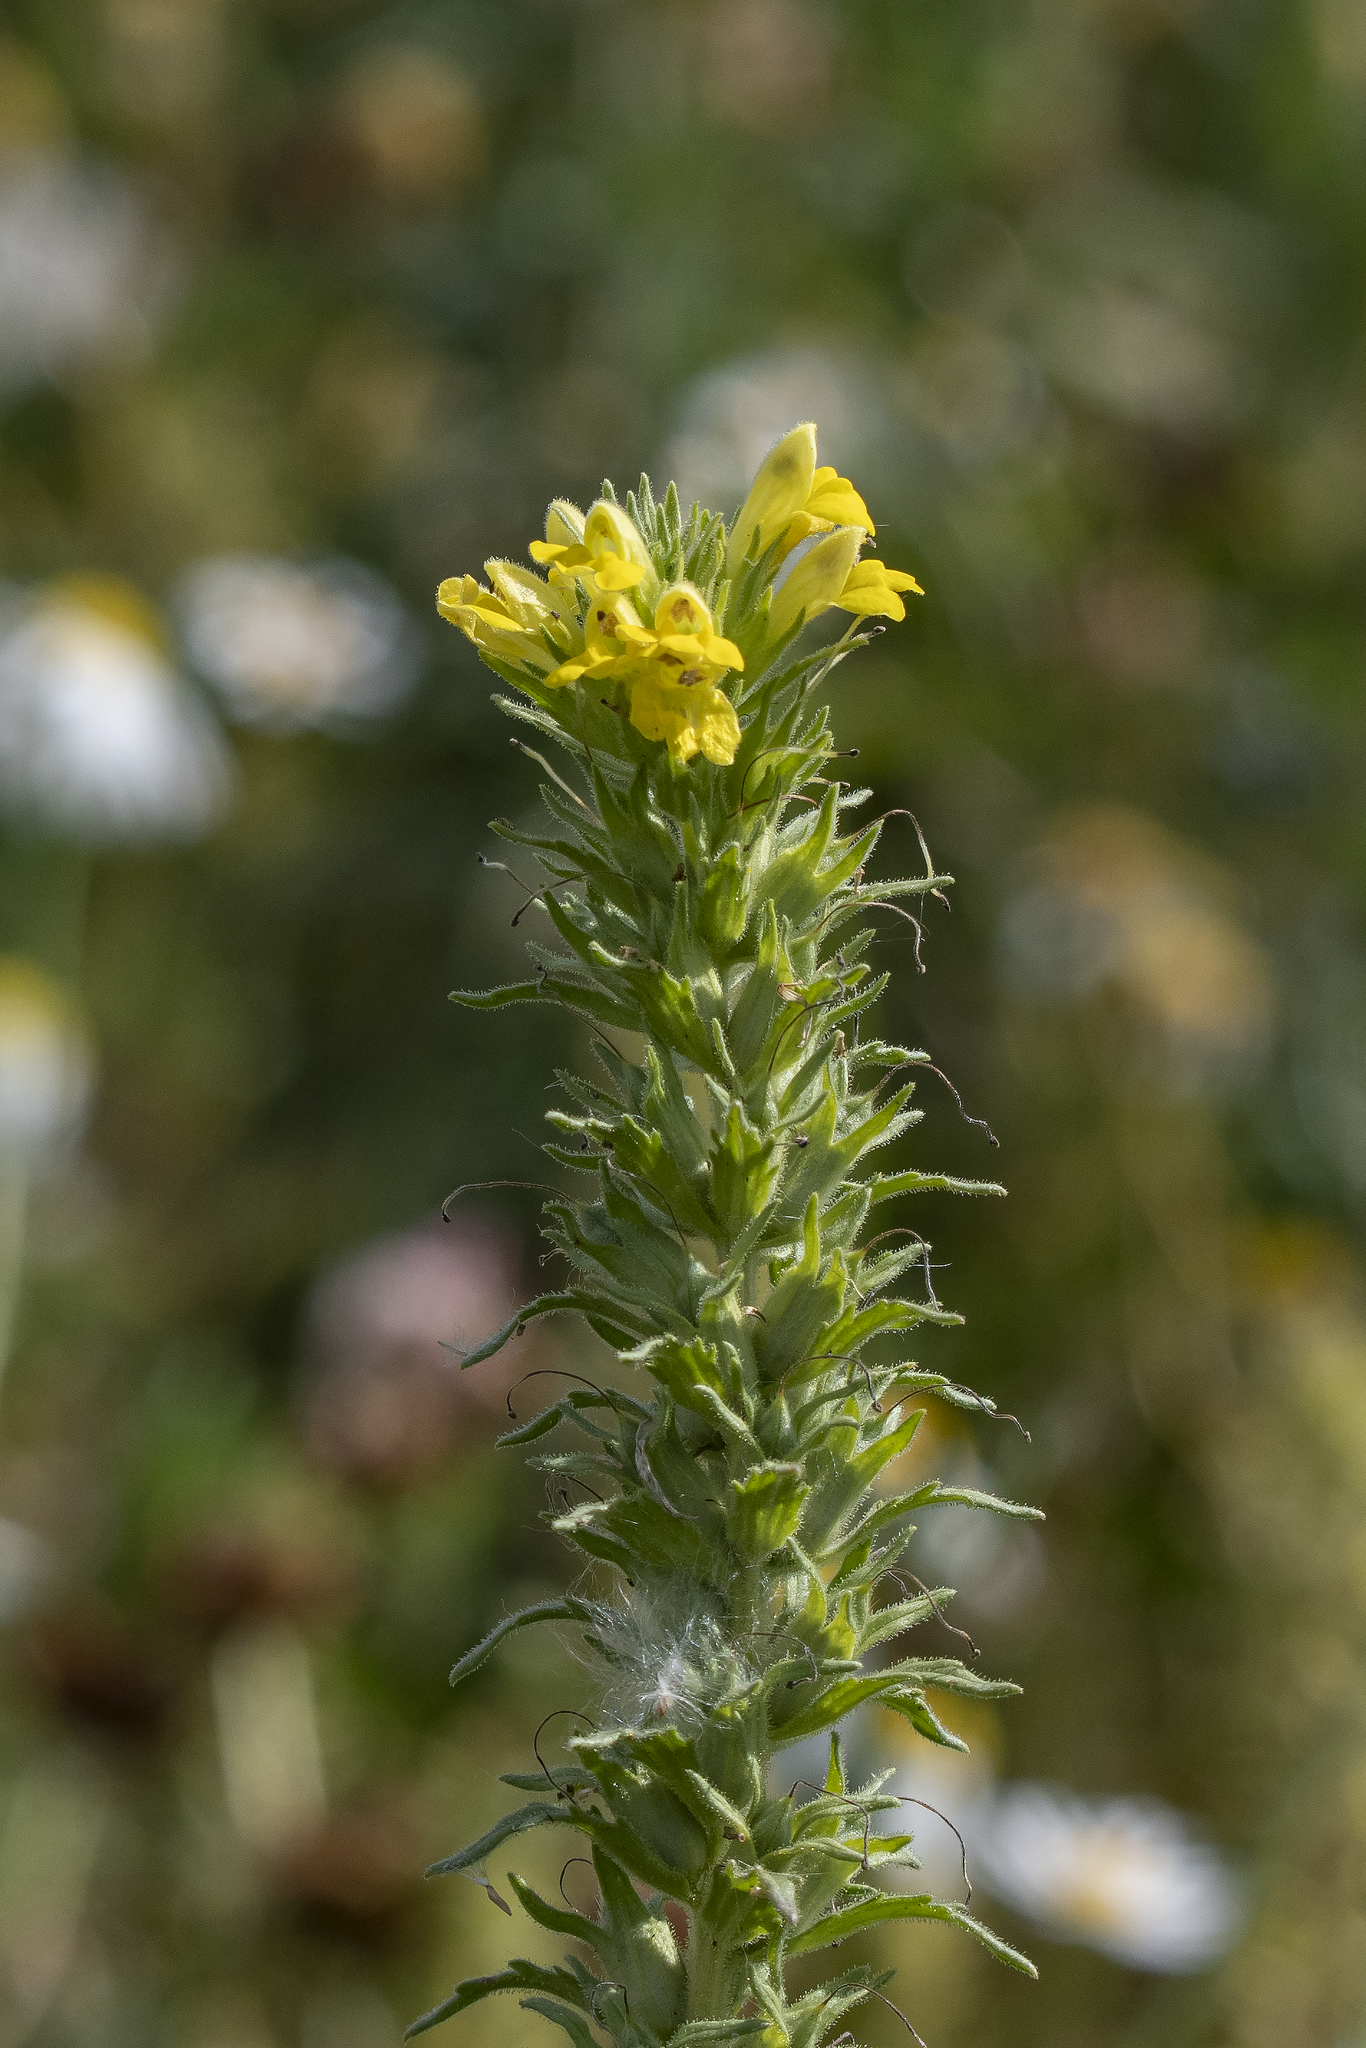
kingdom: Plantae
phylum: Tracheophyta
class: Magnoliopsida
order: Lamiales
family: Orobanchaceae
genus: Bellardia
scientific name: Bellardia viscosa
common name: Sticky parentucellia
